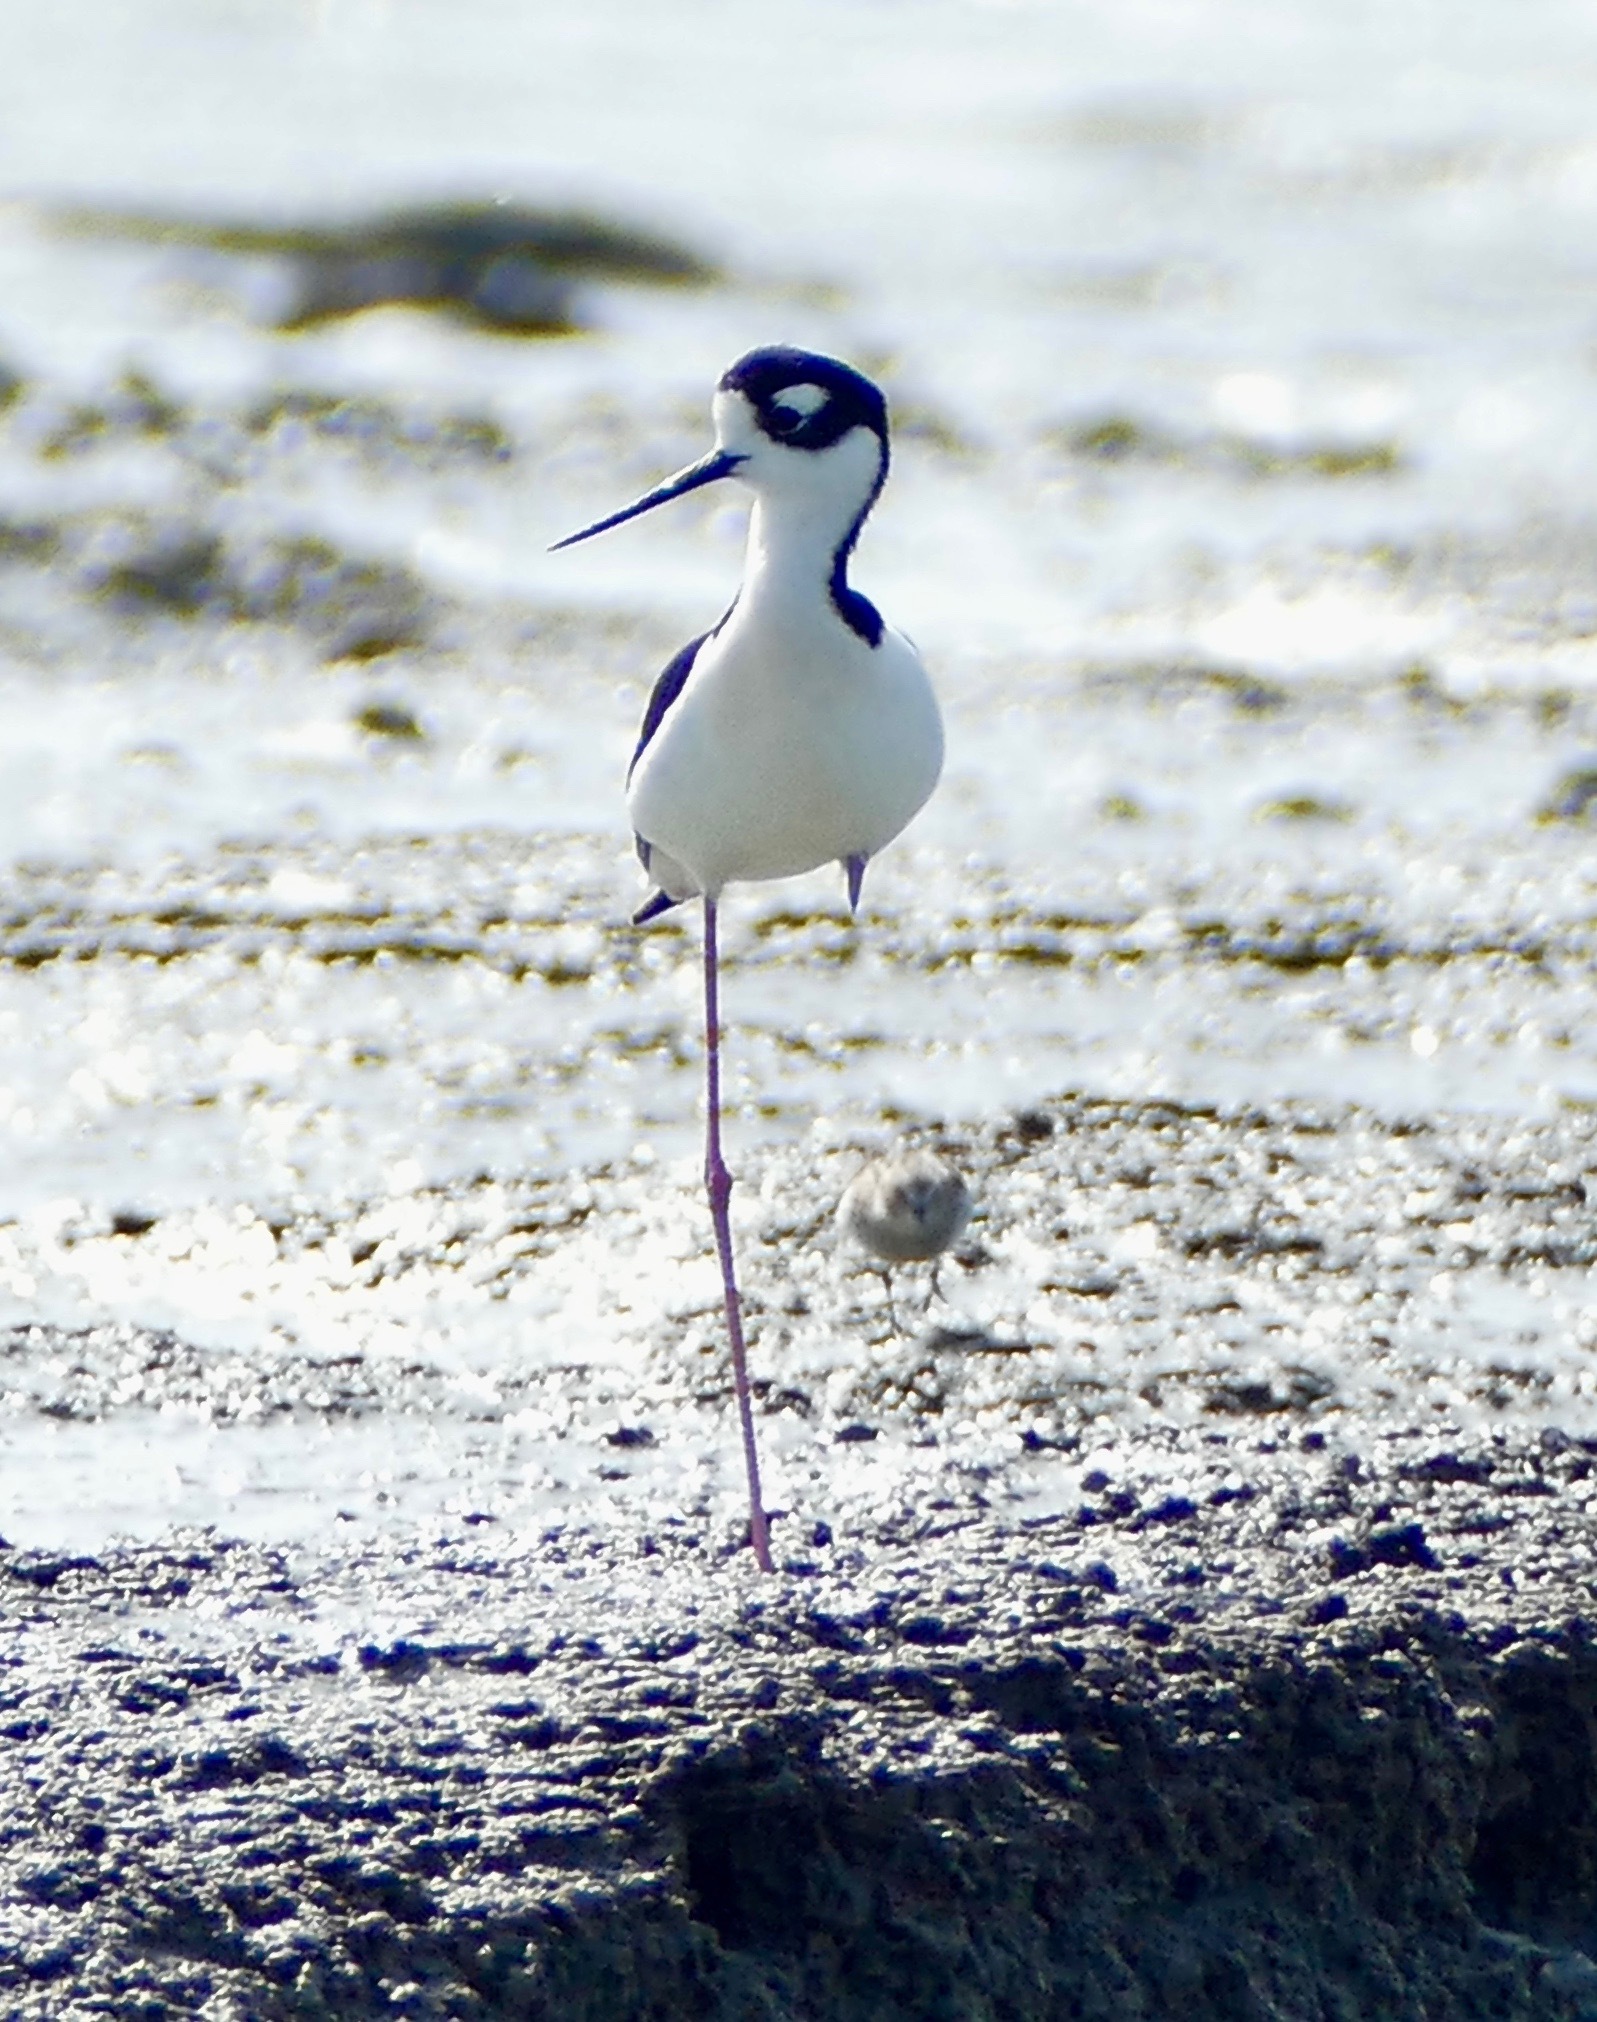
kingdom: Animalia
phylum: Chordata
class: Aves
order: Charadriiformes
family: Recurvirostridae
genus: Himantopus
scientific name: Himantopus mexicanus
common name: Black-necked stilt
